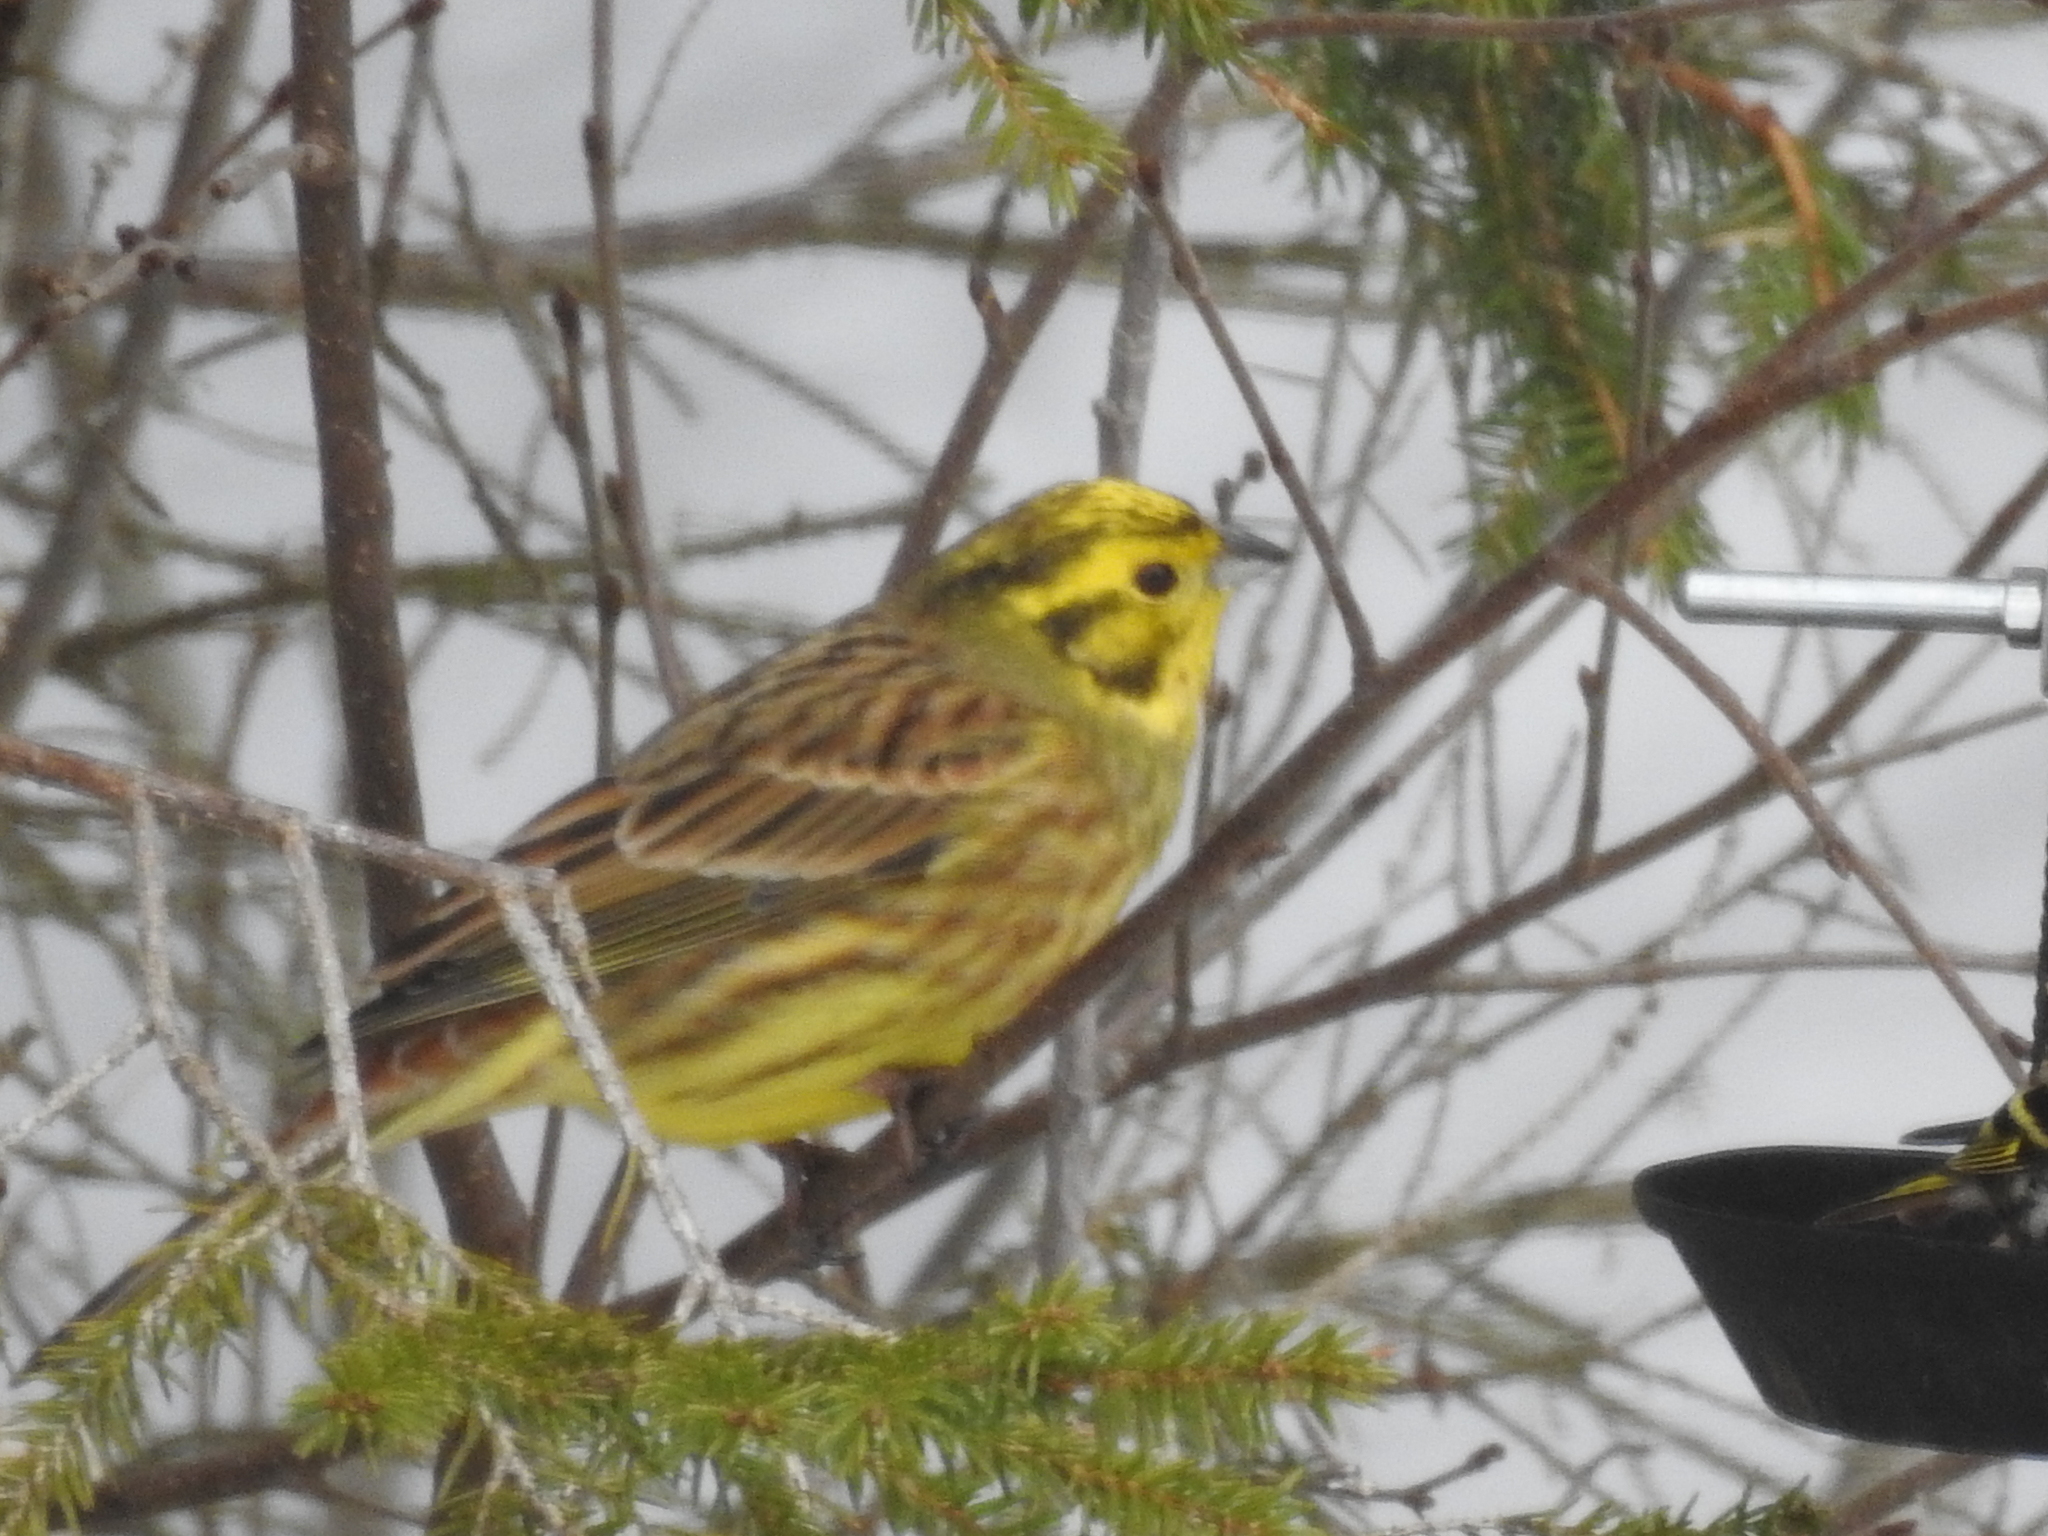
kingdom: Animalia
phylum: Chordata
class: Aves
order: Passeriformes
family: Emberizidae
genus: Emberiza
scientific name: Emberiza citrinella
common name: Yellowhammer
